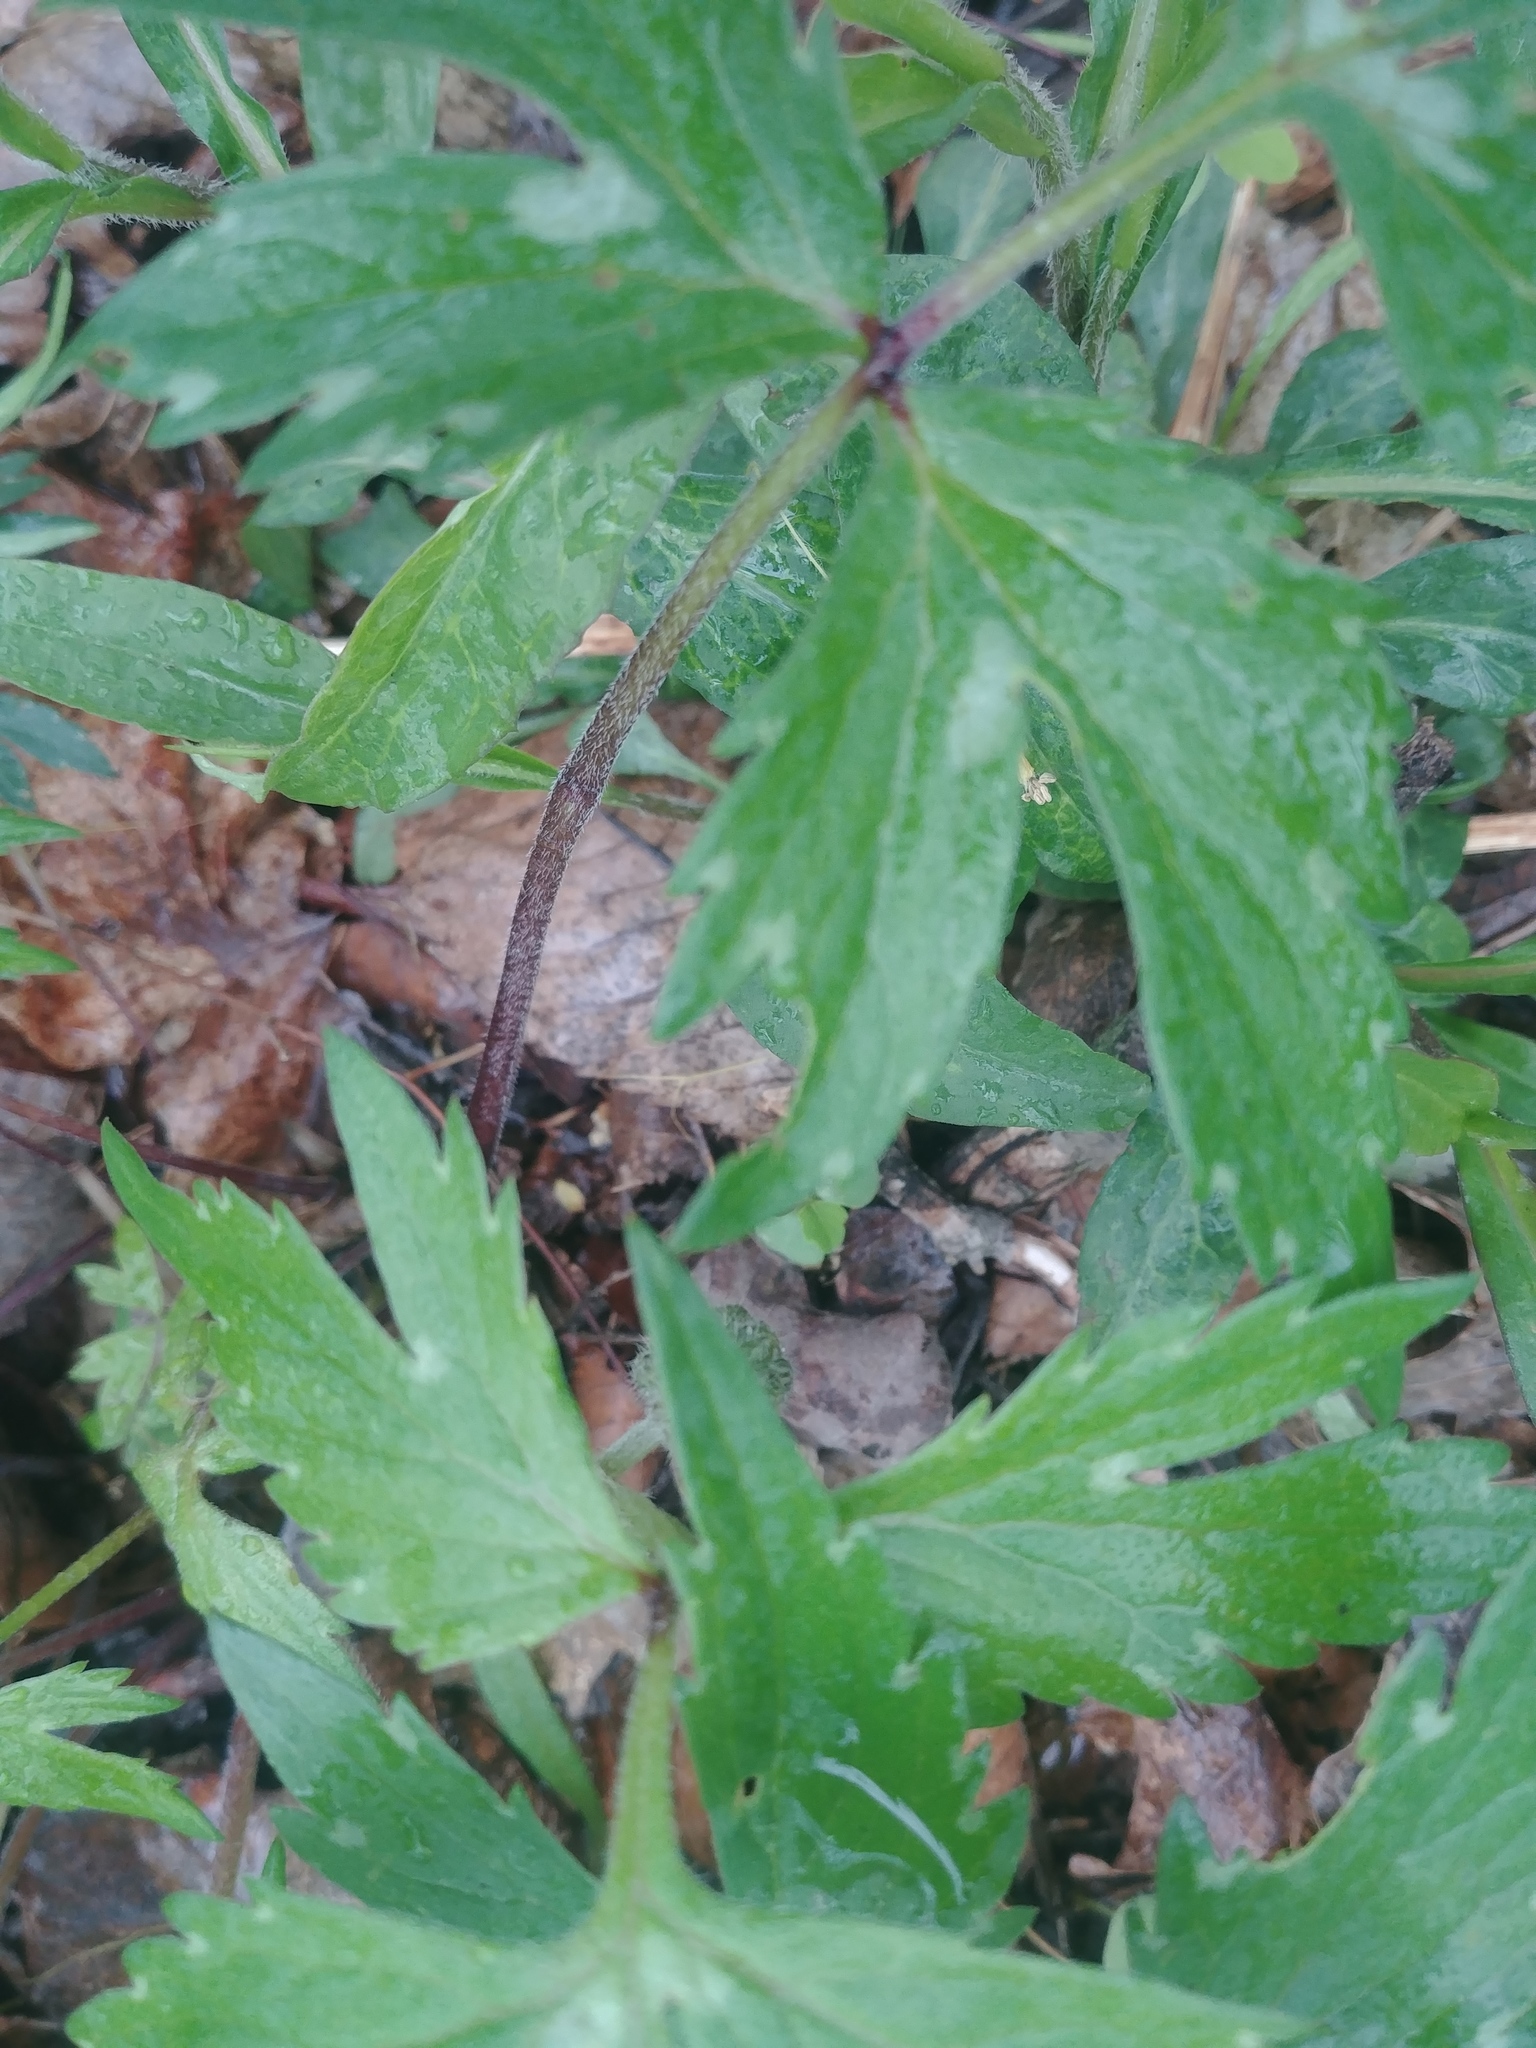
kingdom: Plantae
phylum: Tracheophyta
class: Magnoliopsida
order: Boraginales
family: Hydrophyllaceae
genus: Hydrophyllum
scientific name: Hydrophyllum virginianum
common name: Virginia waterleaf
